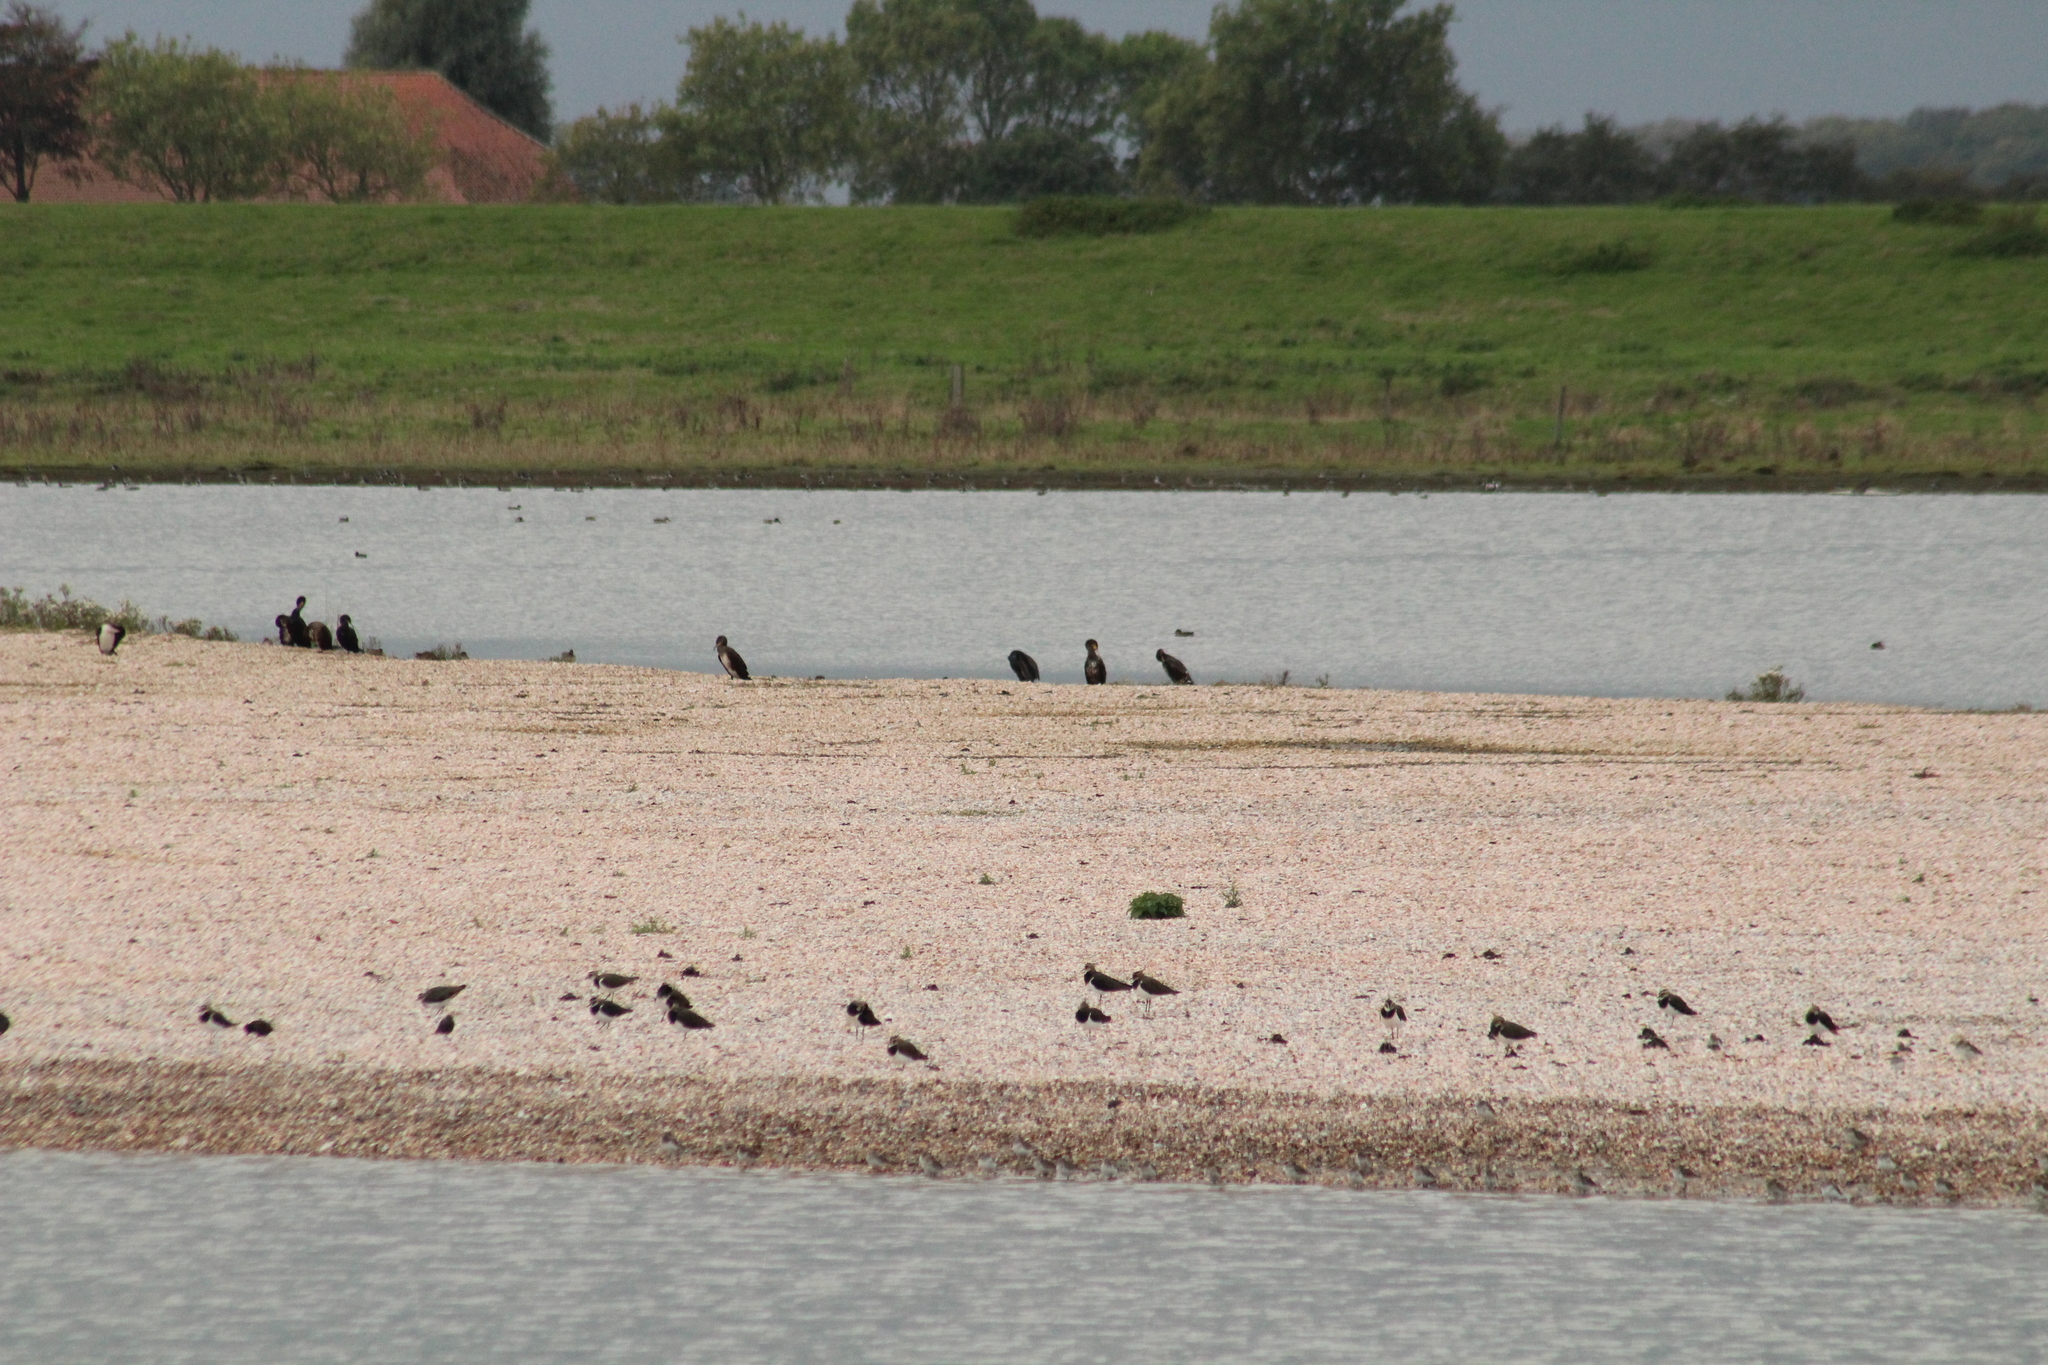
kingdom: Animalia
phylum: Chordata
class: Aves
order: Suliformes
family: Phalacrocoracidae
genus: Phalacrocorax
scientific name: Phalacrocorax carbo
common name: Great cormorant
